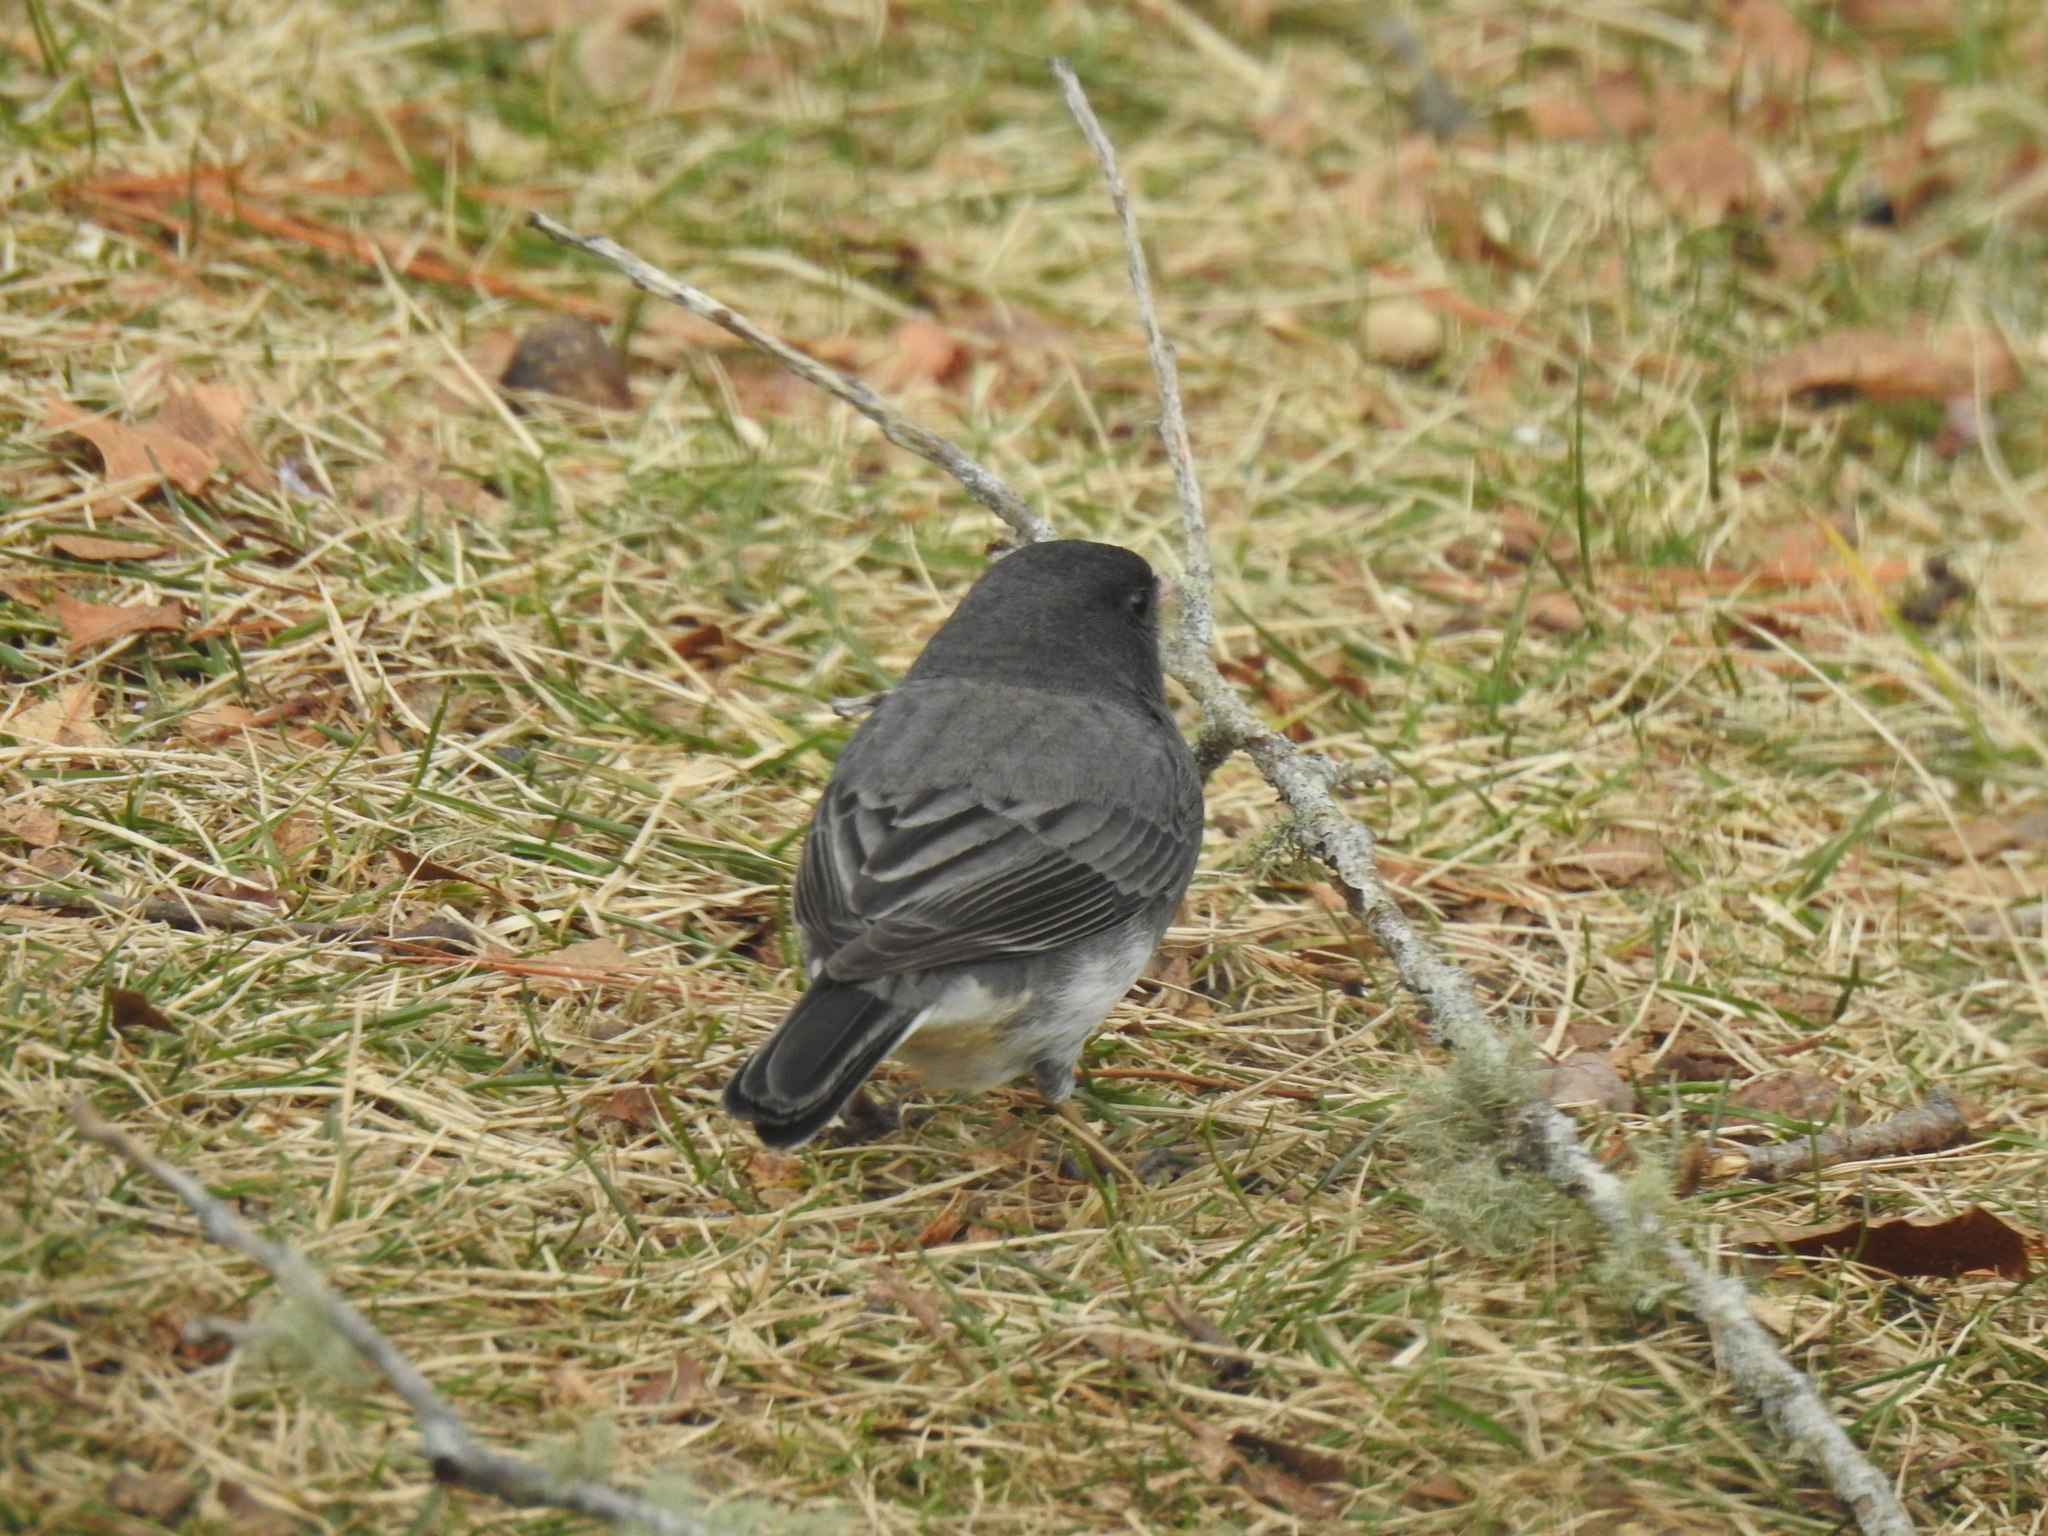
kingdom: Animalia
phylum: Chordata
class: Aves
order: Passeriformes
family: Passerellidae
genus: Junco
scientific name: Junco hyemalis
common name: Dark-eyed junco
